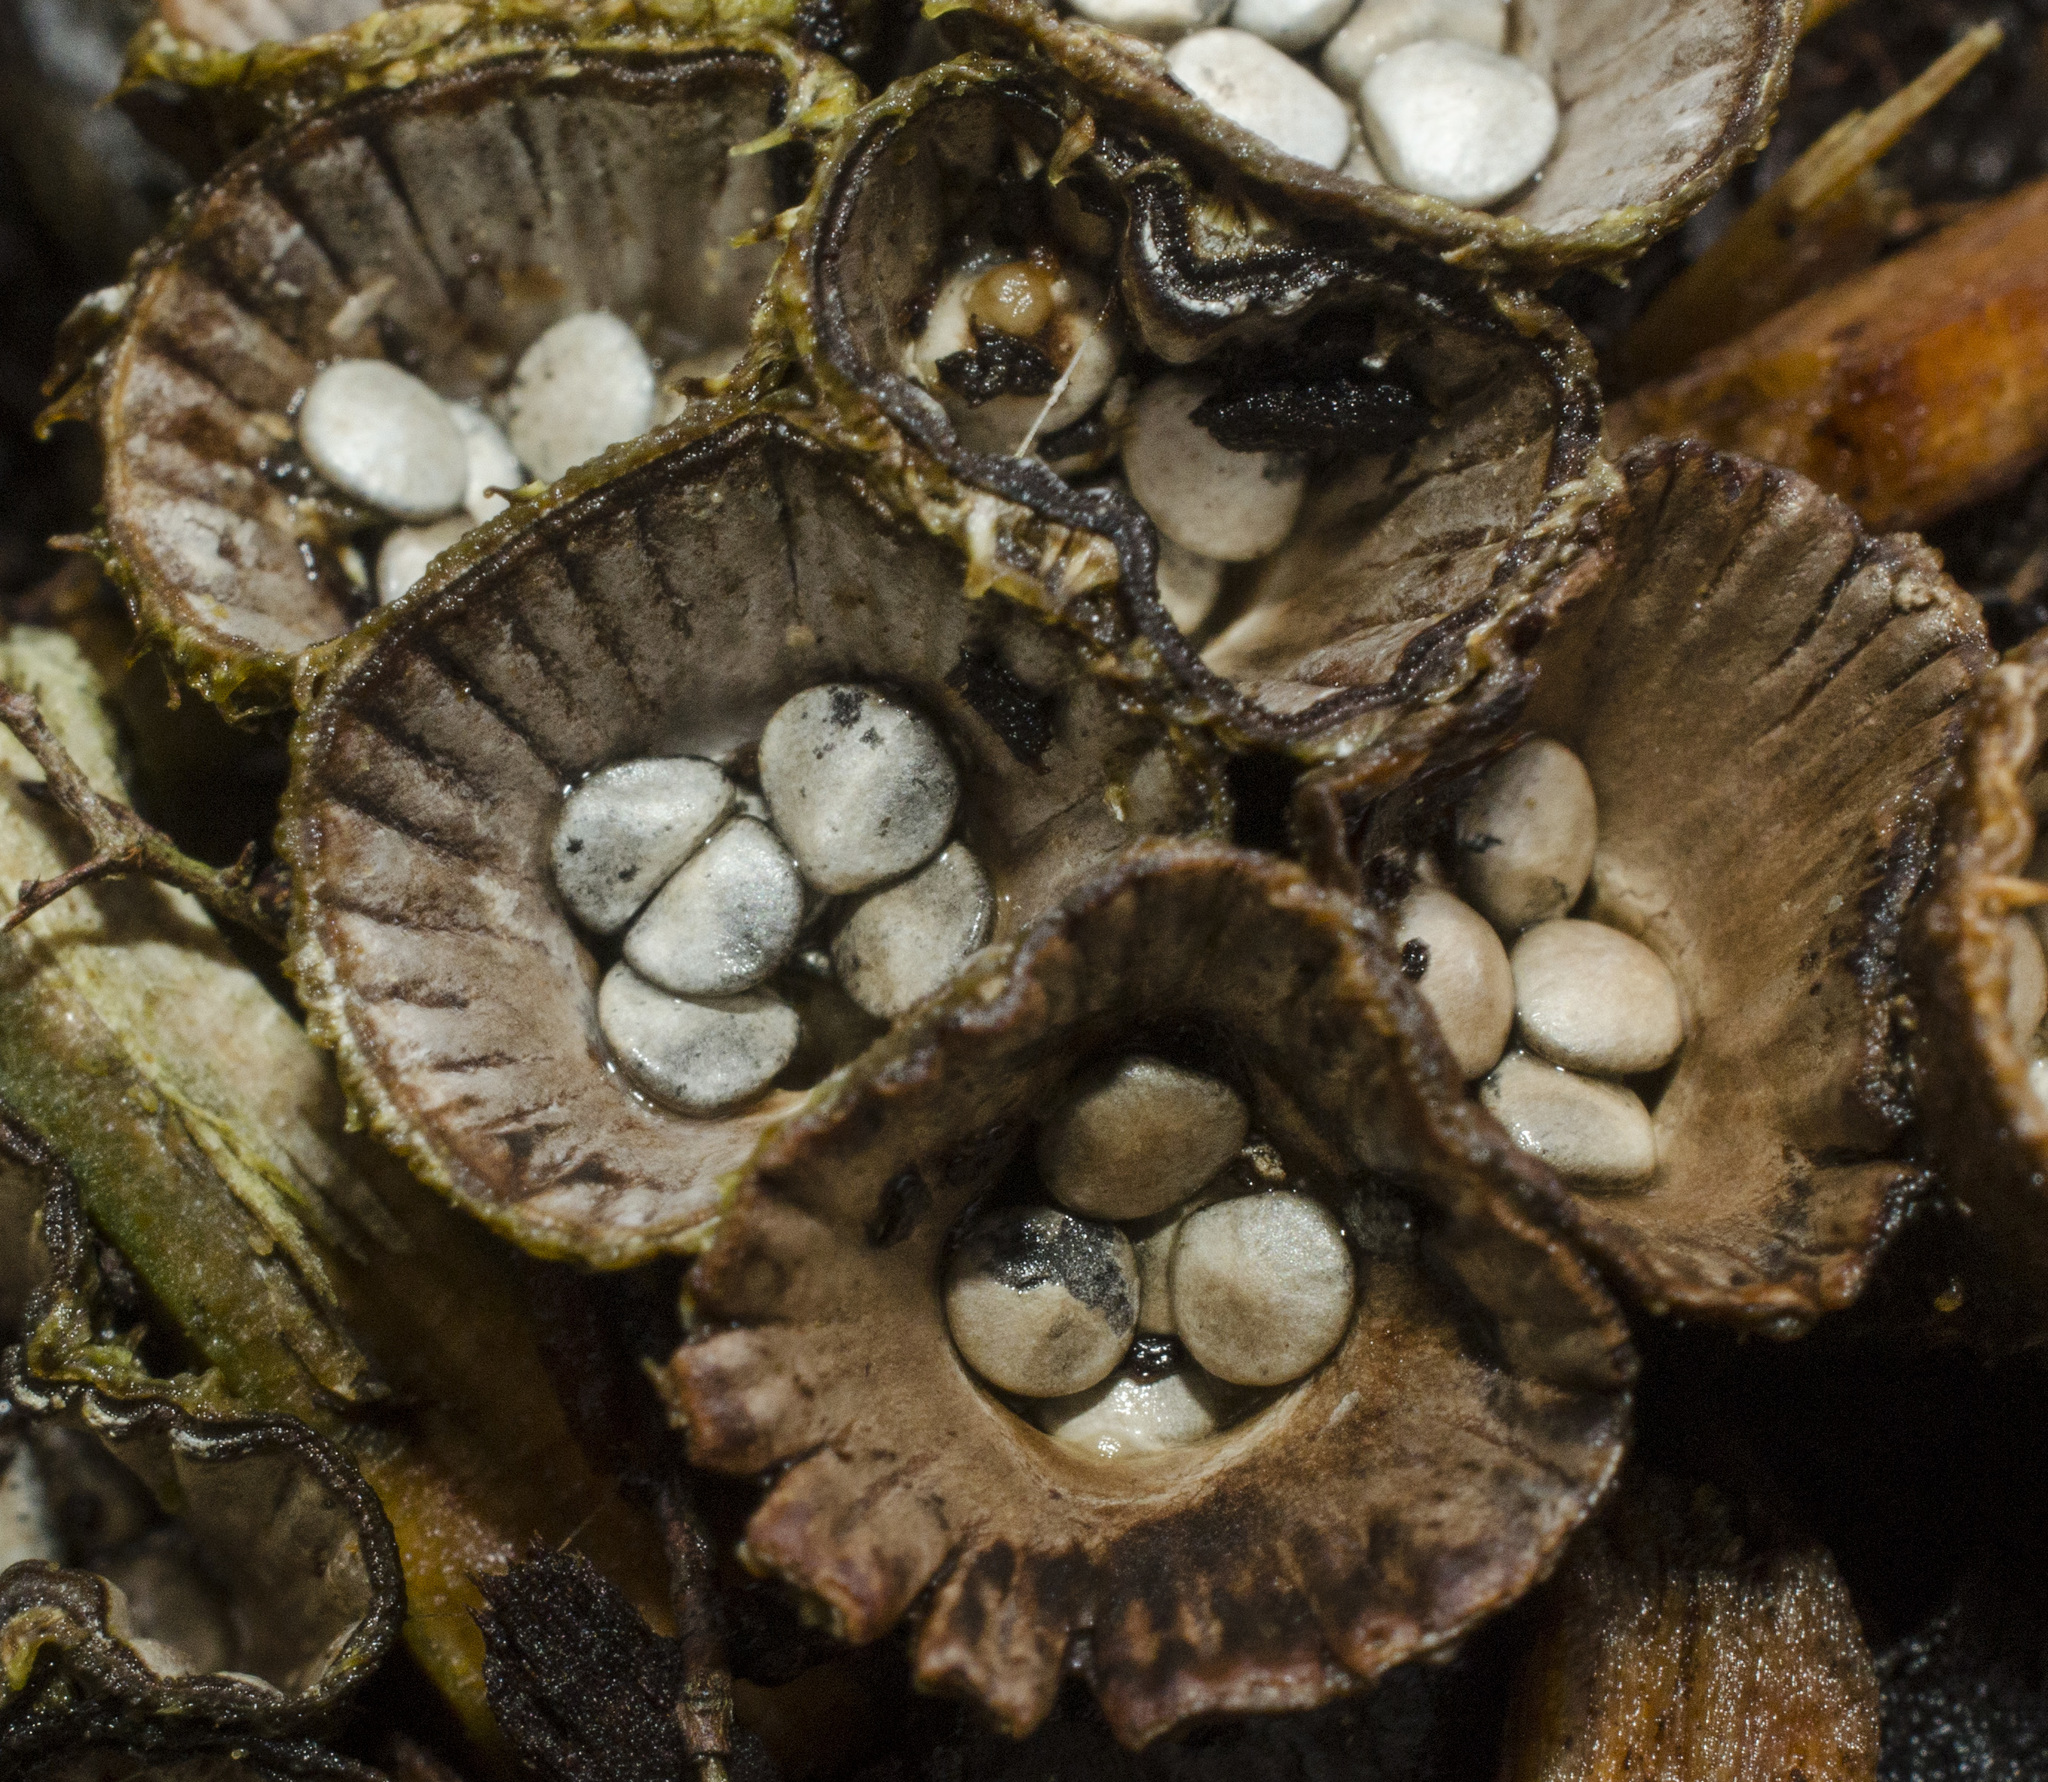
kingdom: Fungi
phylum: Basidiomycota
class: Agaricomycetes
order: Agaricales
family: Agaricaceae
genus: Cyathus
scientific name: Cyathus striatus
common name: Fluted bird's nest
